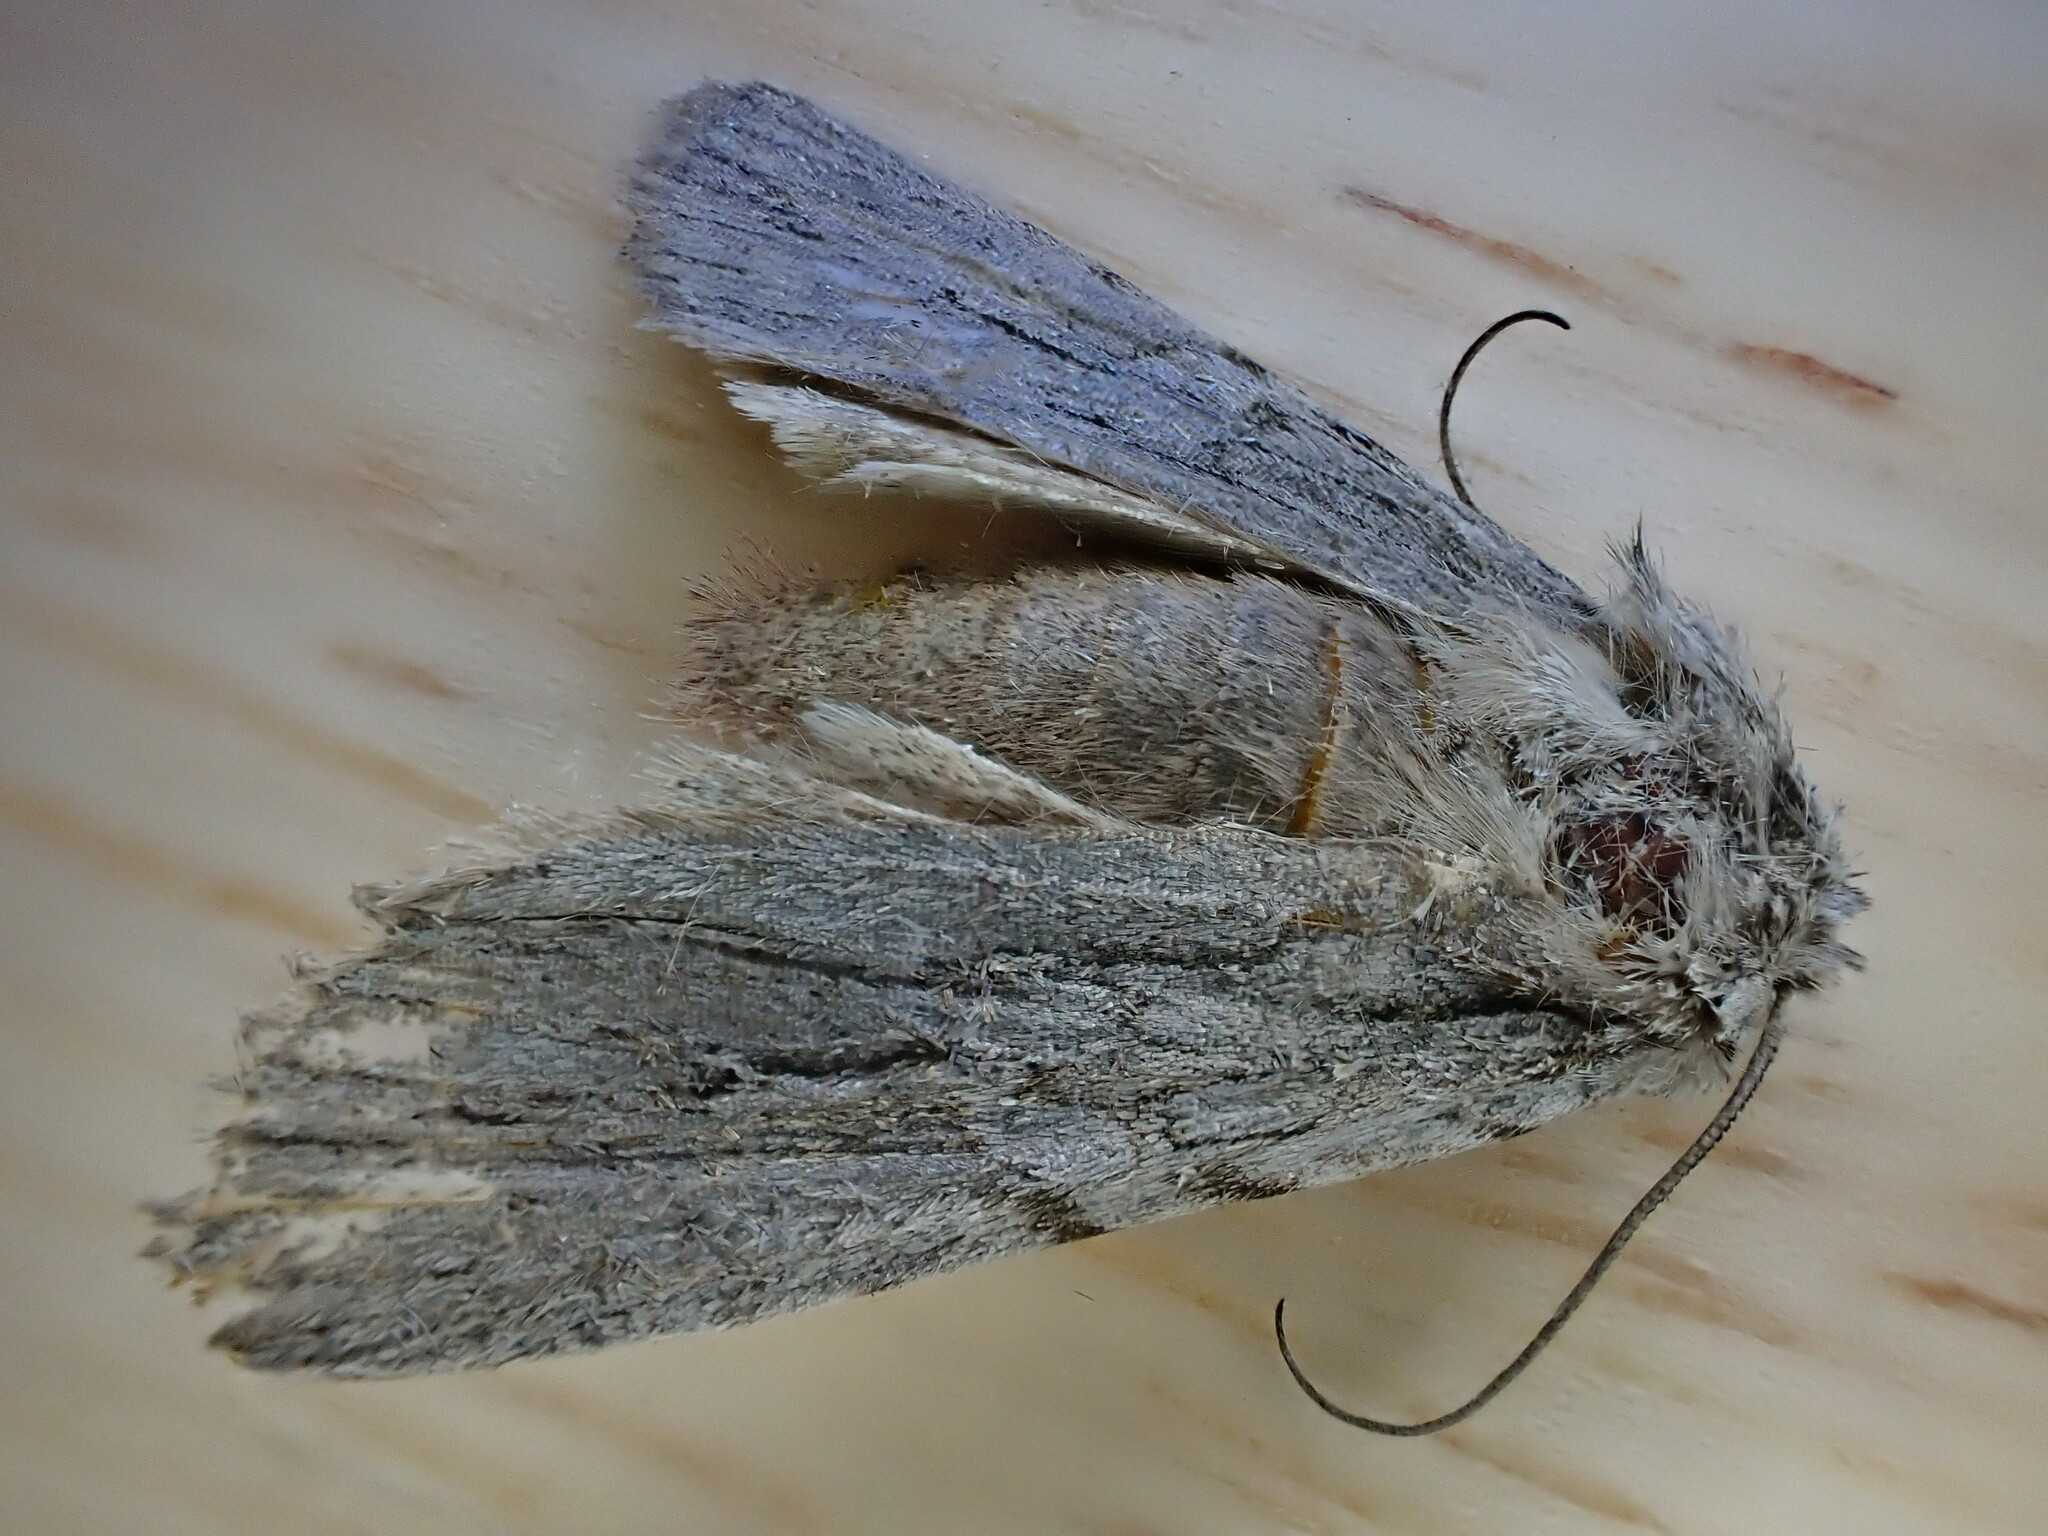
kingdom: Animalia
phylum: Arthropoda
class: Insecta
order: Lepidoptera
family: Noctuidae
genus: Lithophane
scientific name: Lithophane leautieri
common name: Blair's shoulder-knot
